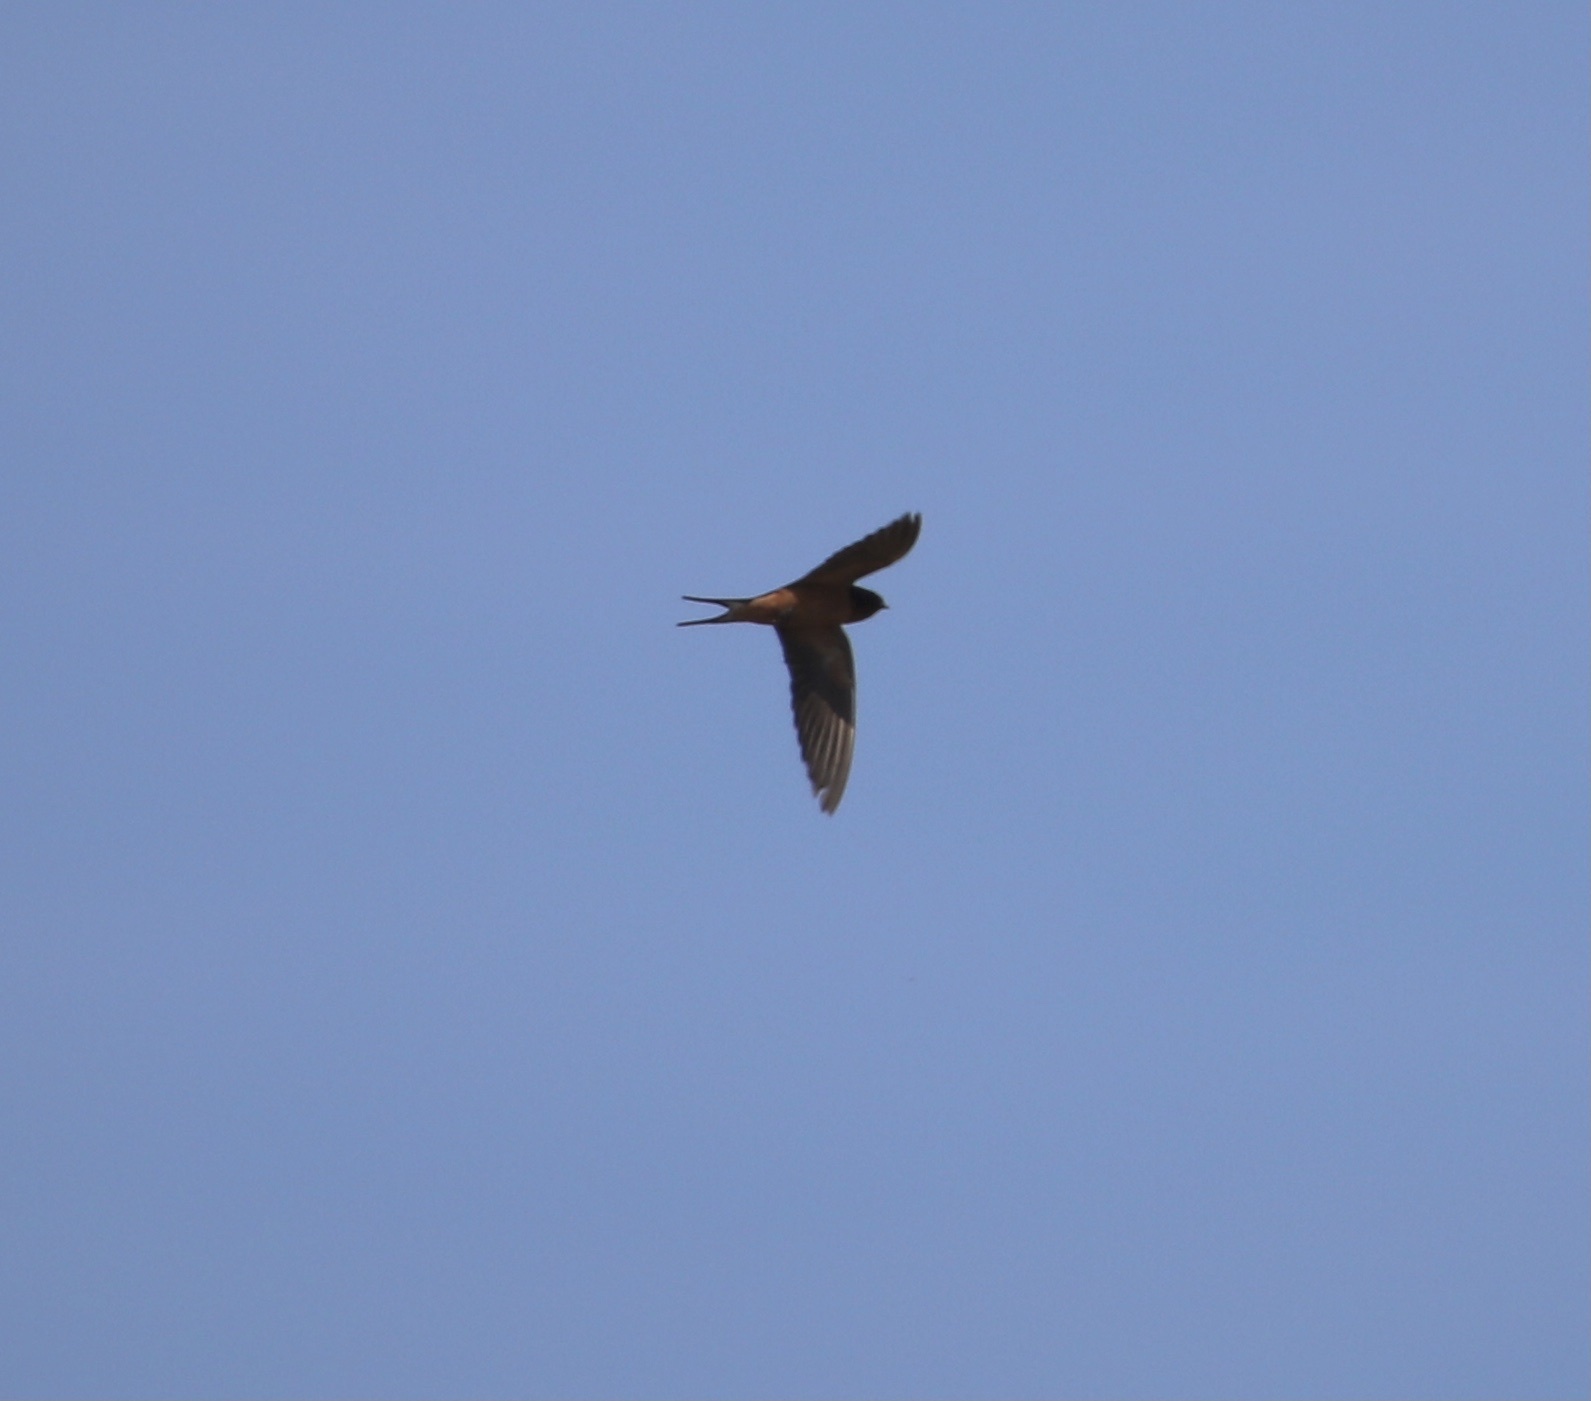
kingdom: Animalia
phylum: Chordata
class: Aves
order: Passeriformes
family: Hirundinidae
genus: Hirundo
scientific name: Hirundo rustica
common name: Barn swallow
